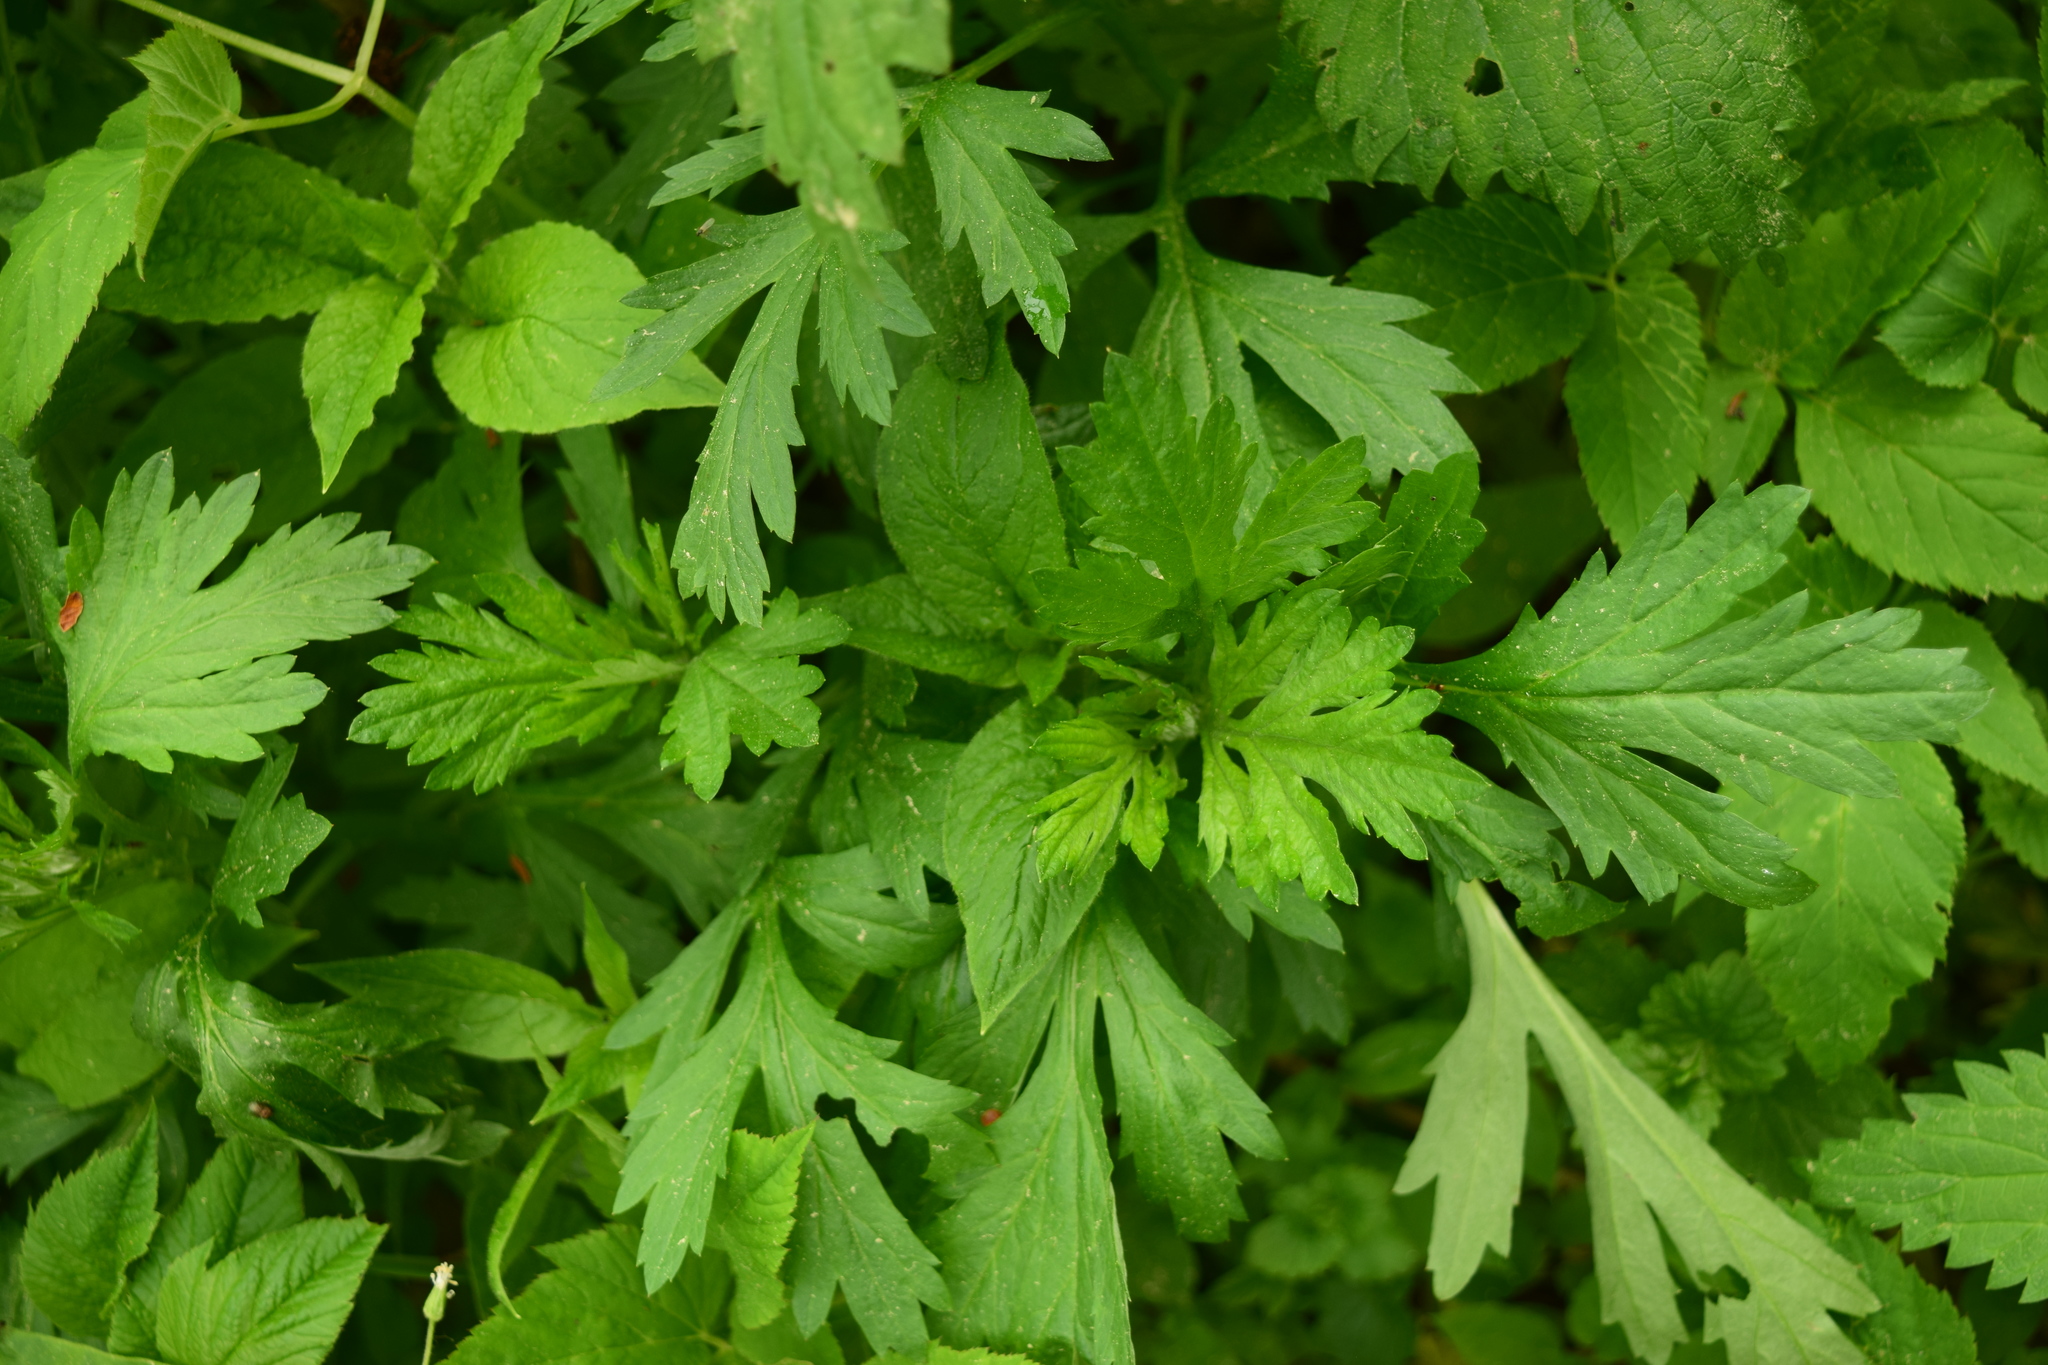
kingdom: Plantae
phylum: Tracheophyta
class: Magnoliopsida
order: Asterales
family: Asteraceae
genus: Artemisia
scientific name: Artemisia vulgaris
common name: Mugwort
